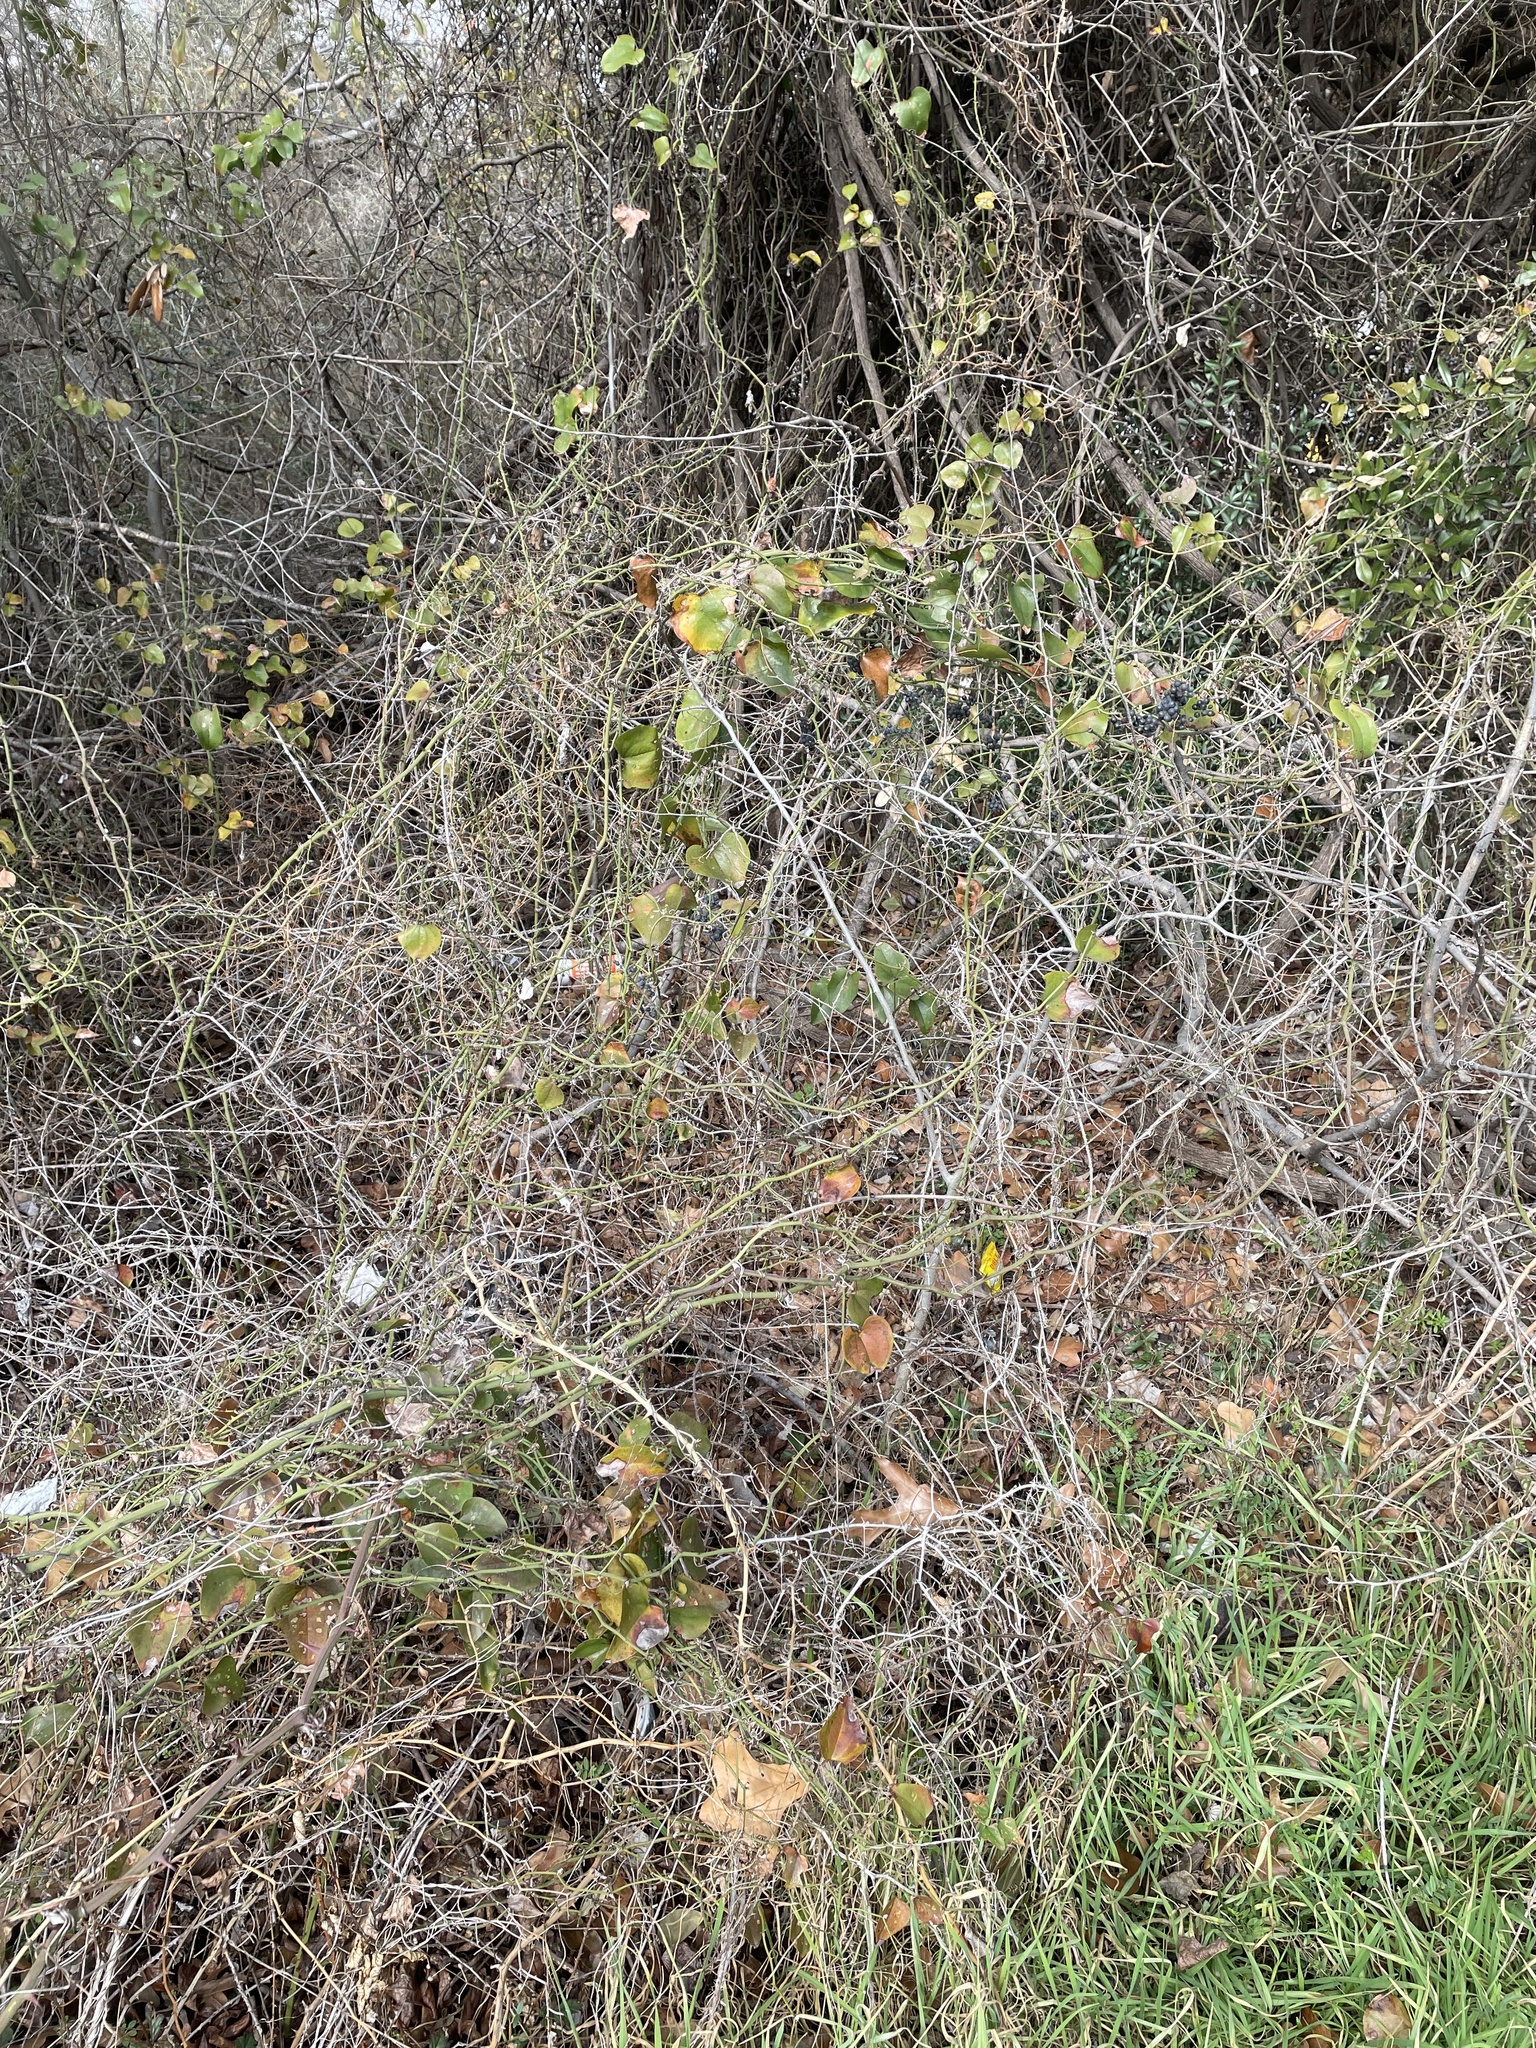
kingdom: Plantae
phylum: Tracheophyta
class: Liliopsida
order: Liliales
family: Smilacaceae
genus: Smilax
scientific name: Smilax bona-nox
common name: Catbrier
